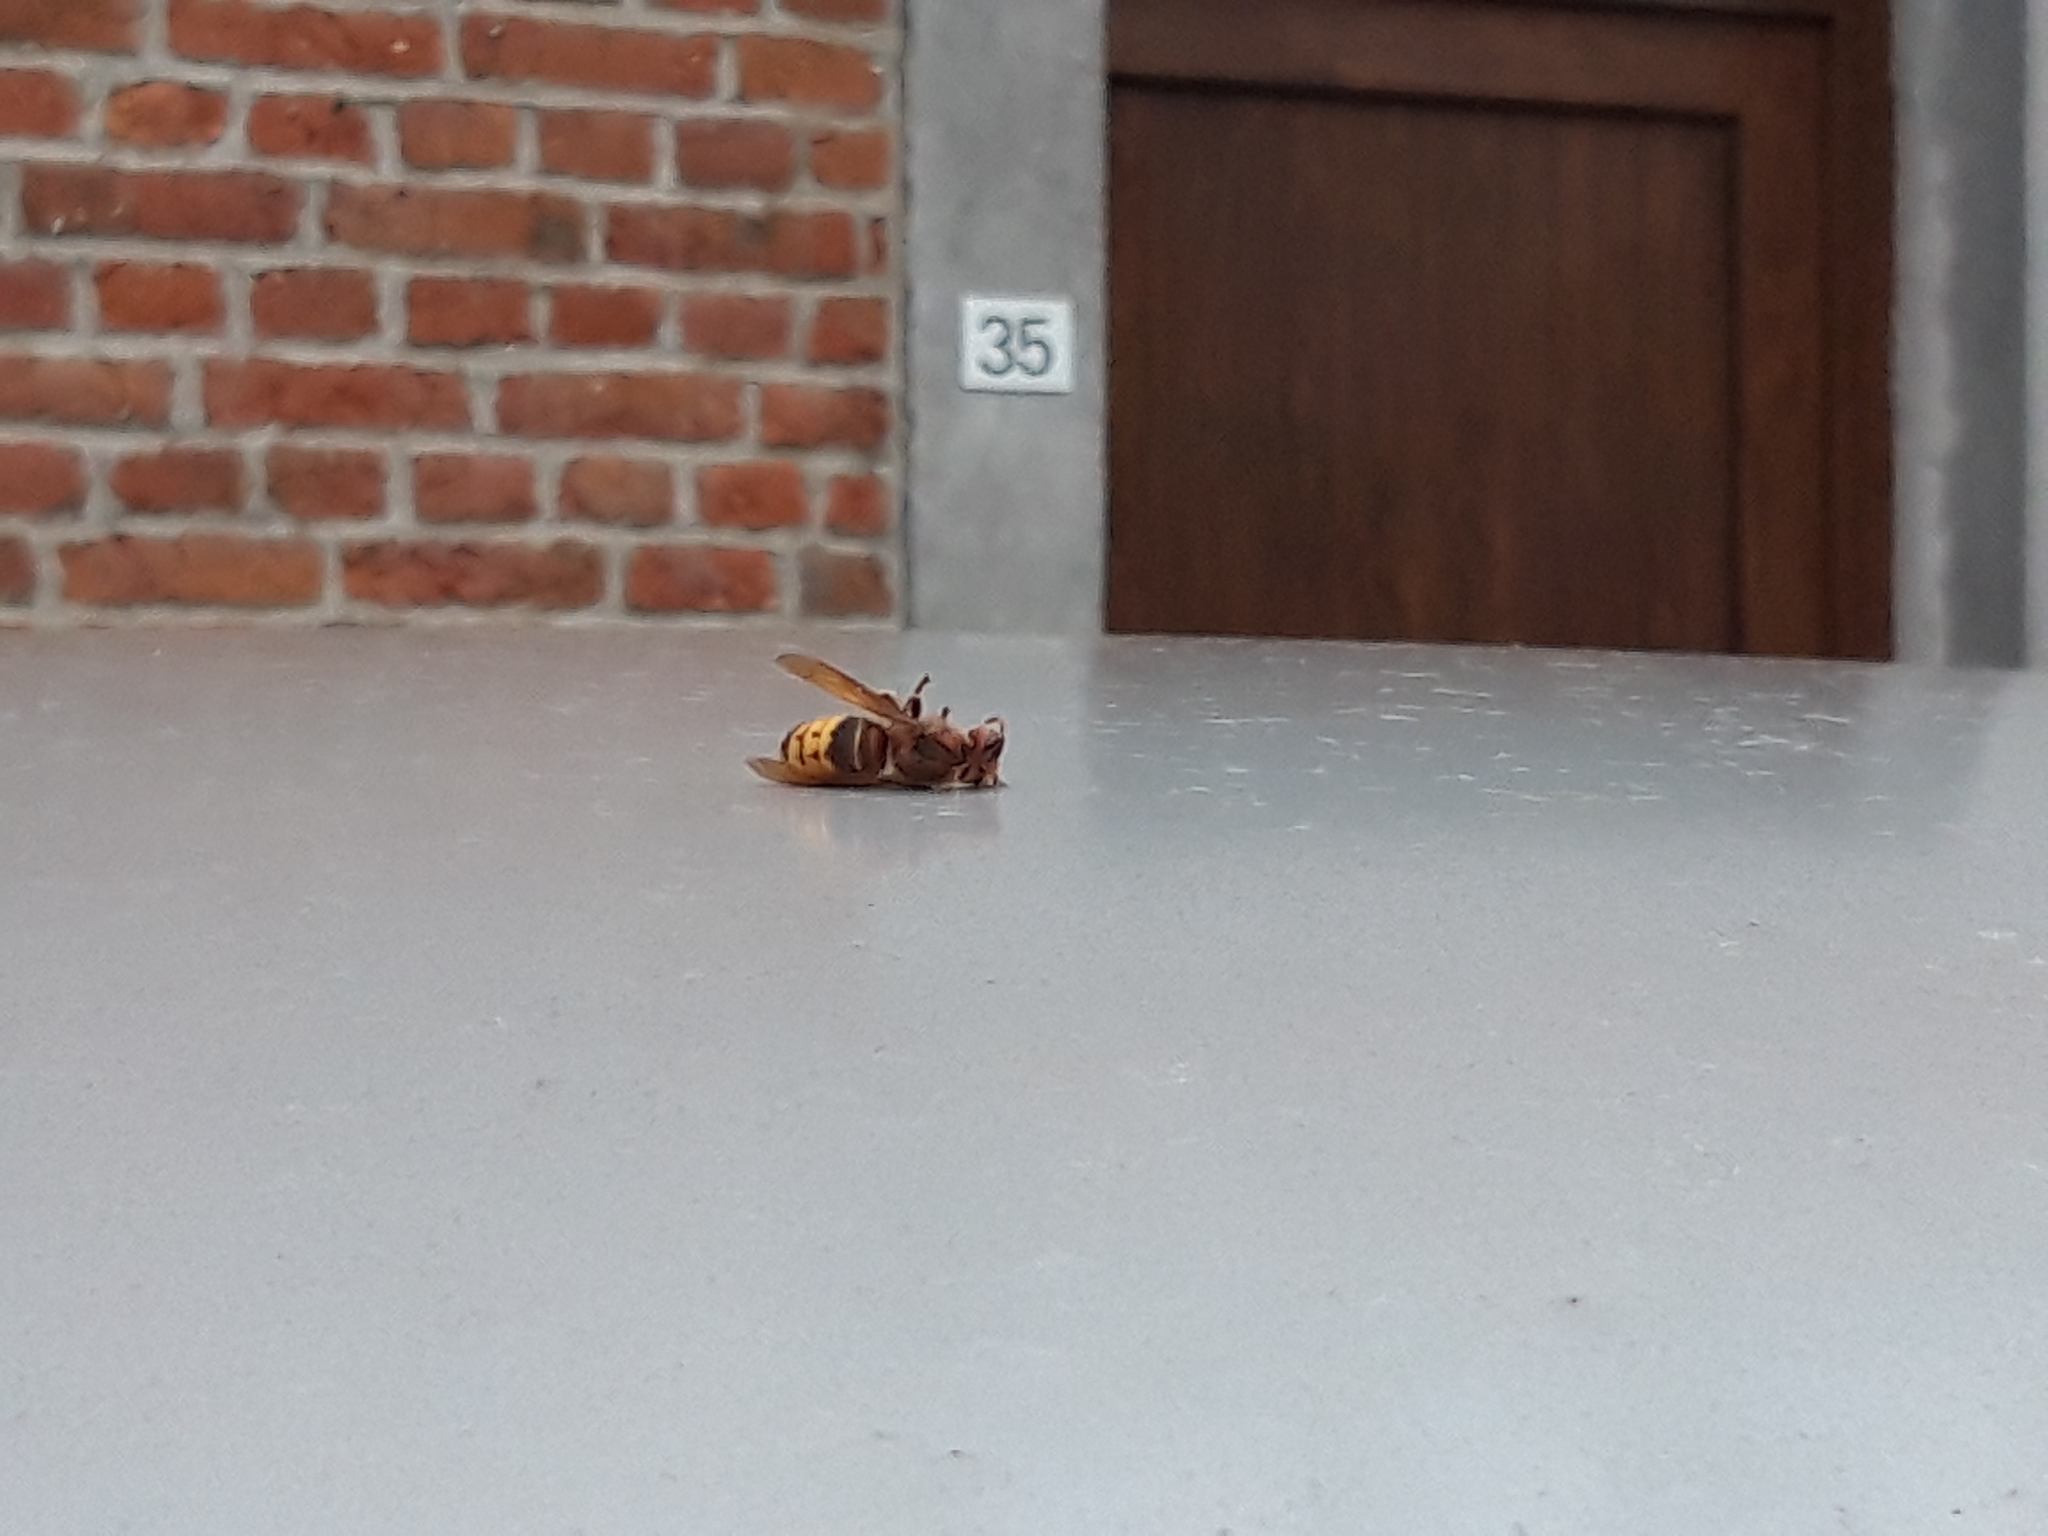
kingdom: Animalia
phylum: Arthropoda
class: Insecta
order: Hymenoptera
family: Vespidae
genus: Vespa
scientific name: Vespa crabro
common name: Hornet
